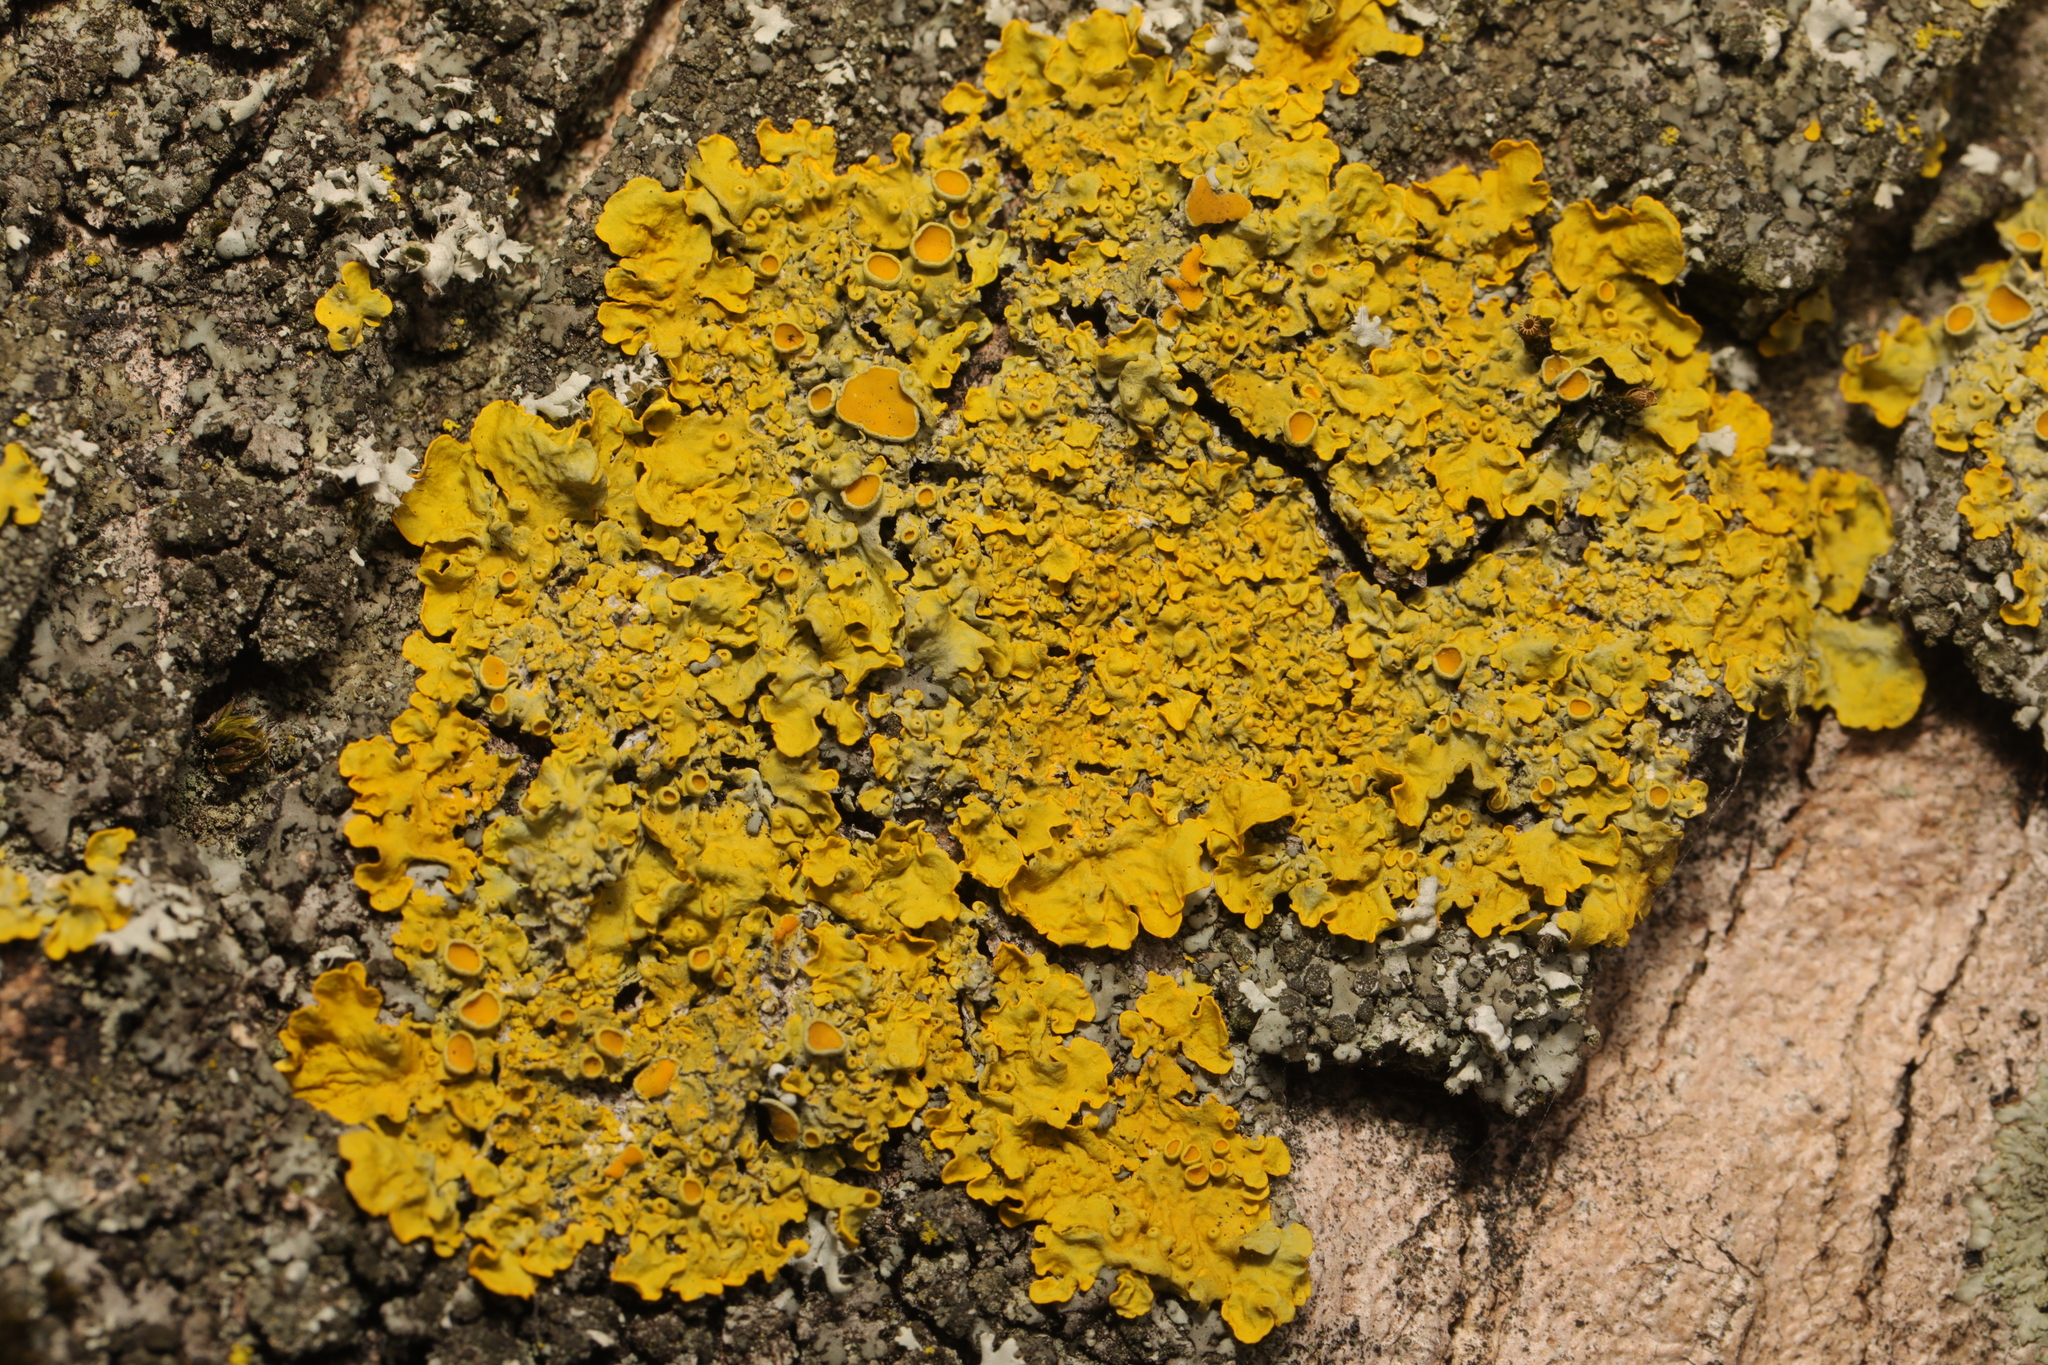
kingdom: Fungi
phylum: Ascomycota
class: Lecanoromycetes
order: Teloschistales
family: Teloschistaceae
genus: Xanthoria
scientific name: Xanthoria parietina
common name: Common orange lichen
